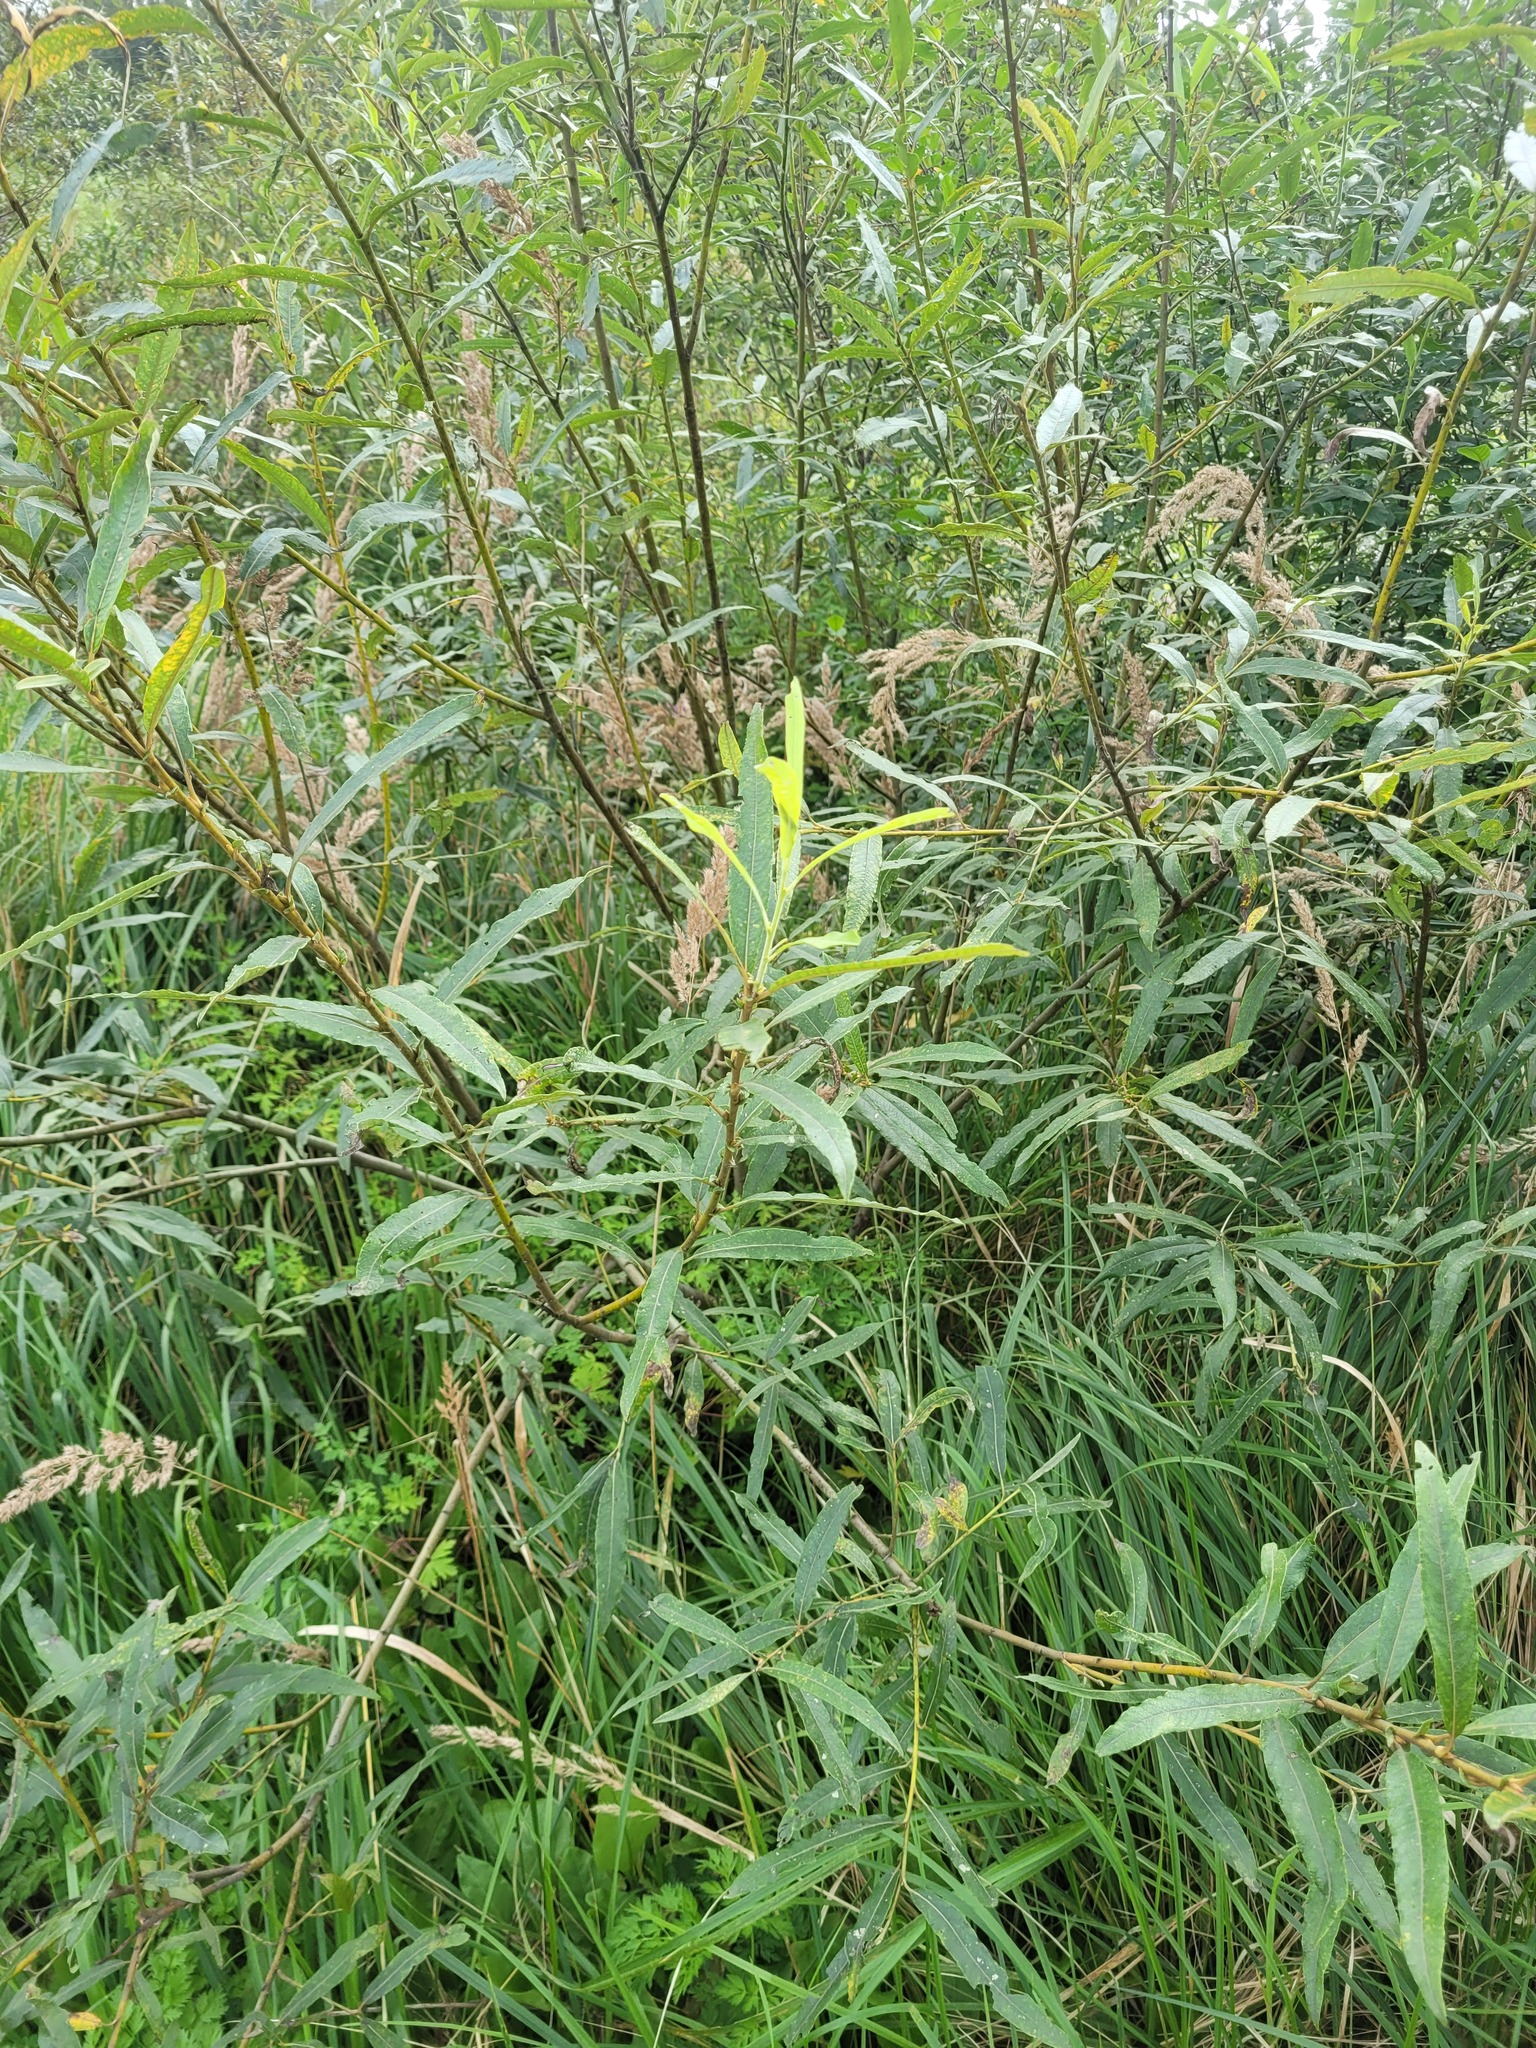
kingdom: Plantae
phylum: Tracheophyta
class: Magnoliopsida
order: Malpighiales
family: Salicaceae
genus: Salix
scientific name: Salix gmelinii
